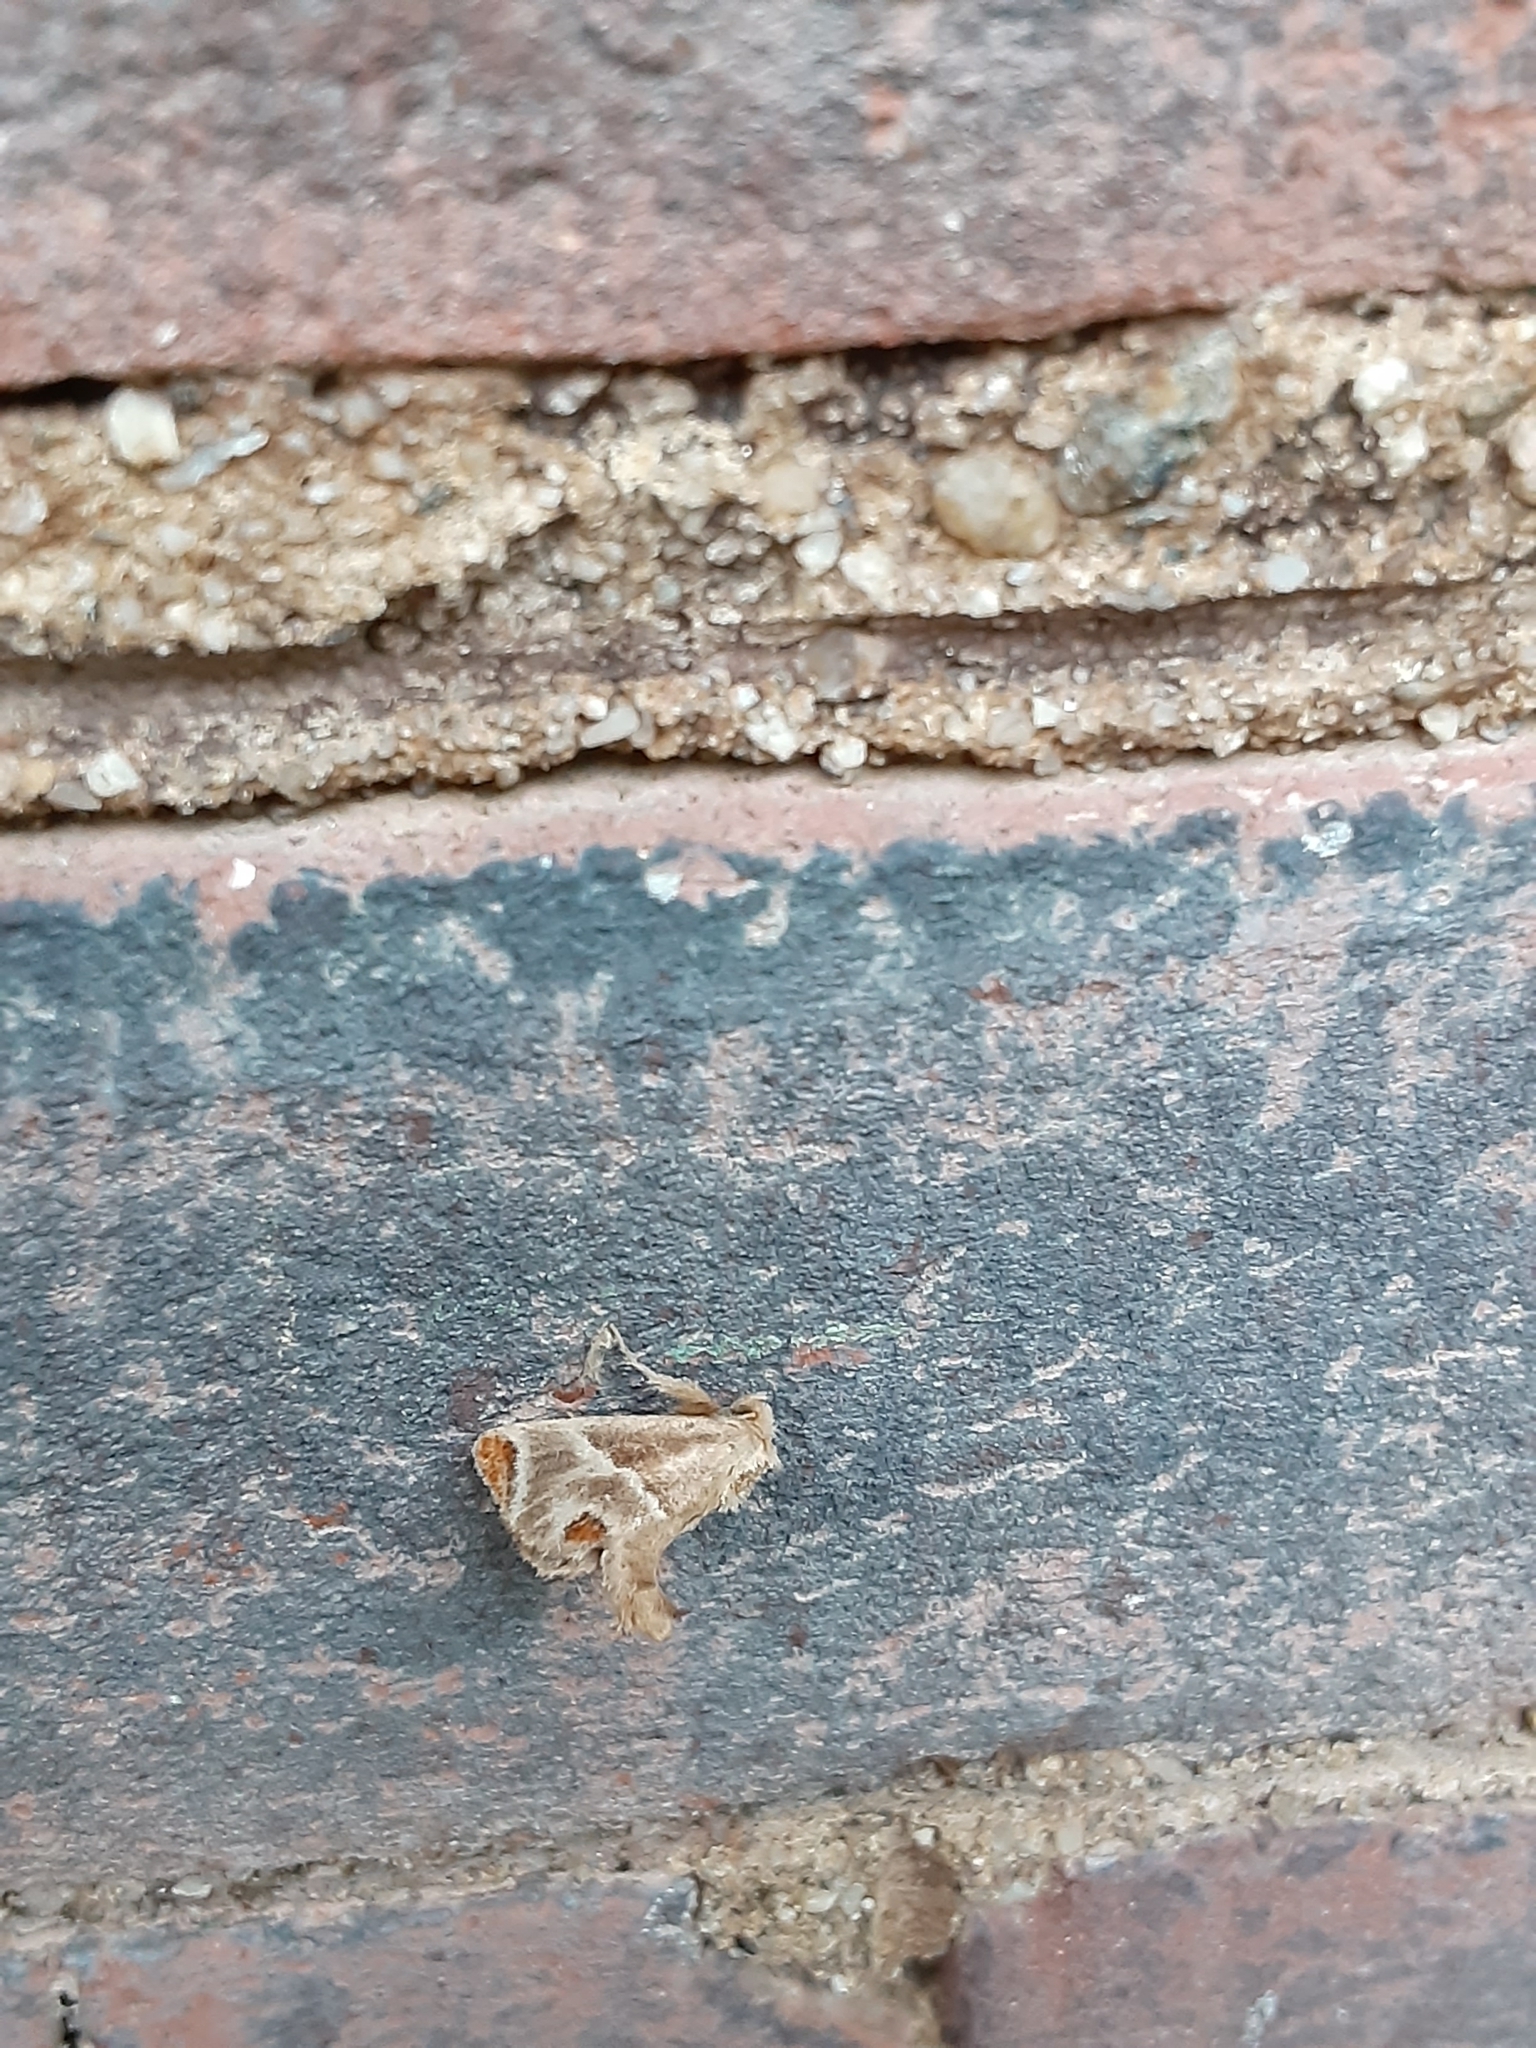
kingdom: Animalia
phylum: Arthropoda
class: Insecta
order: Lepidoptera
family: Limacodidae
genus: Apoda
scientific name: Apoda biguttata
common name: Shagreened slug moth
